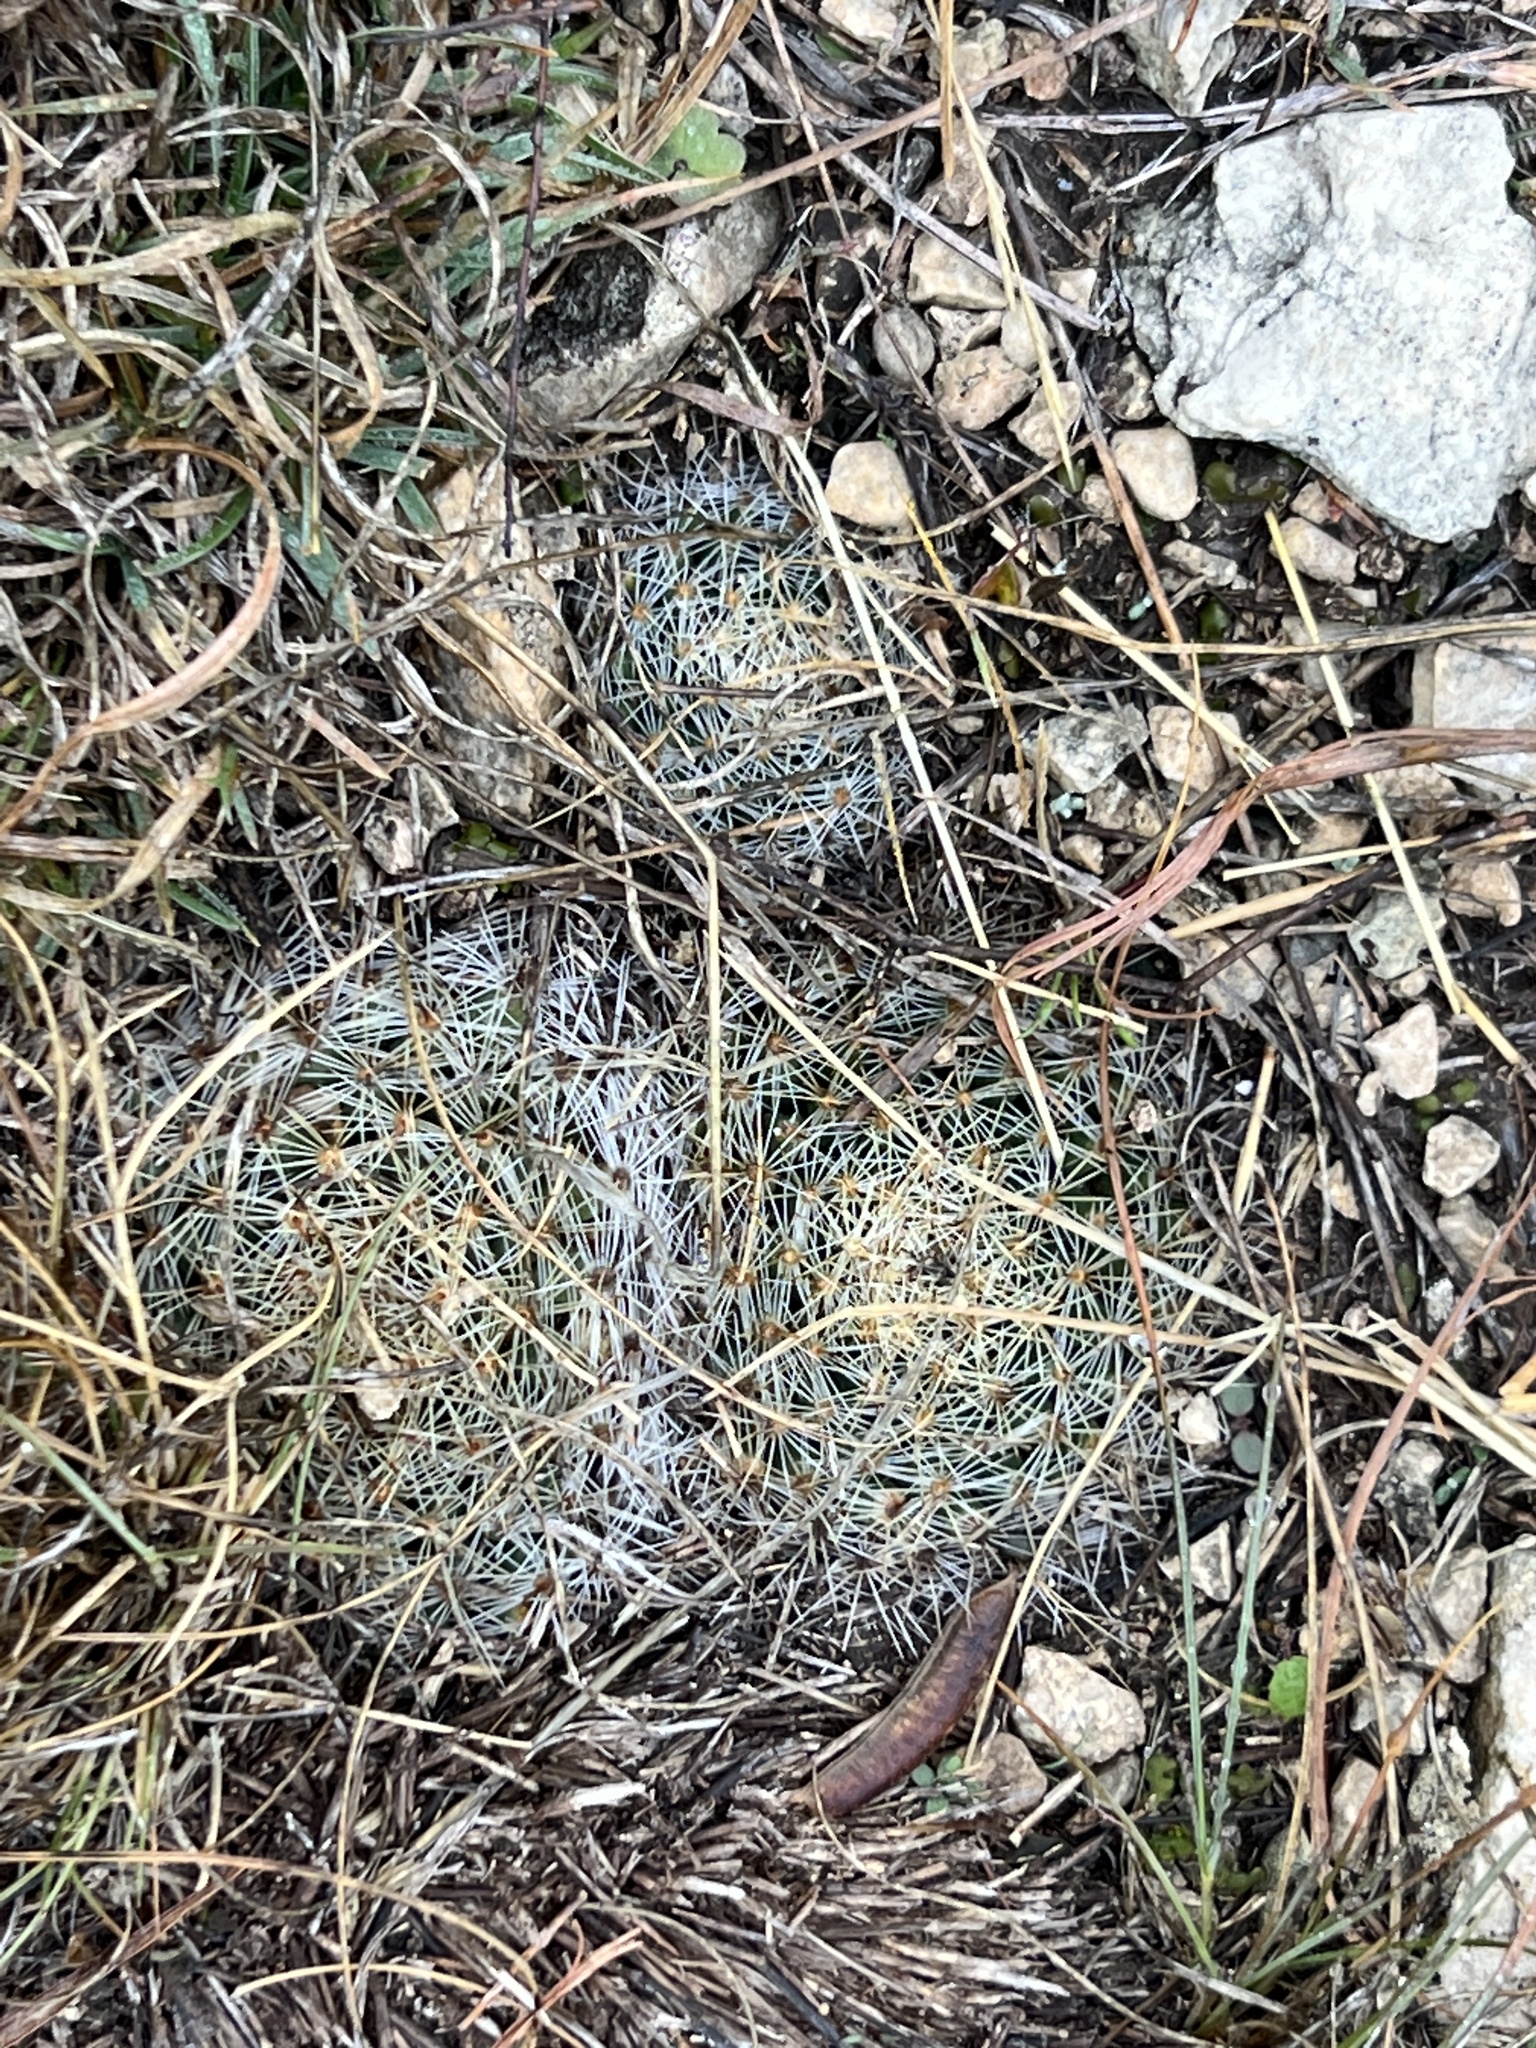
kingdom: Plantae
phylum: Tracheophyta
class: Magnoliopsida
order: Caryophyllales
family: Cactaceae
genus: Mammillaria
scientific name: Mammillaria heyderi
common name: Little nipple cactus
